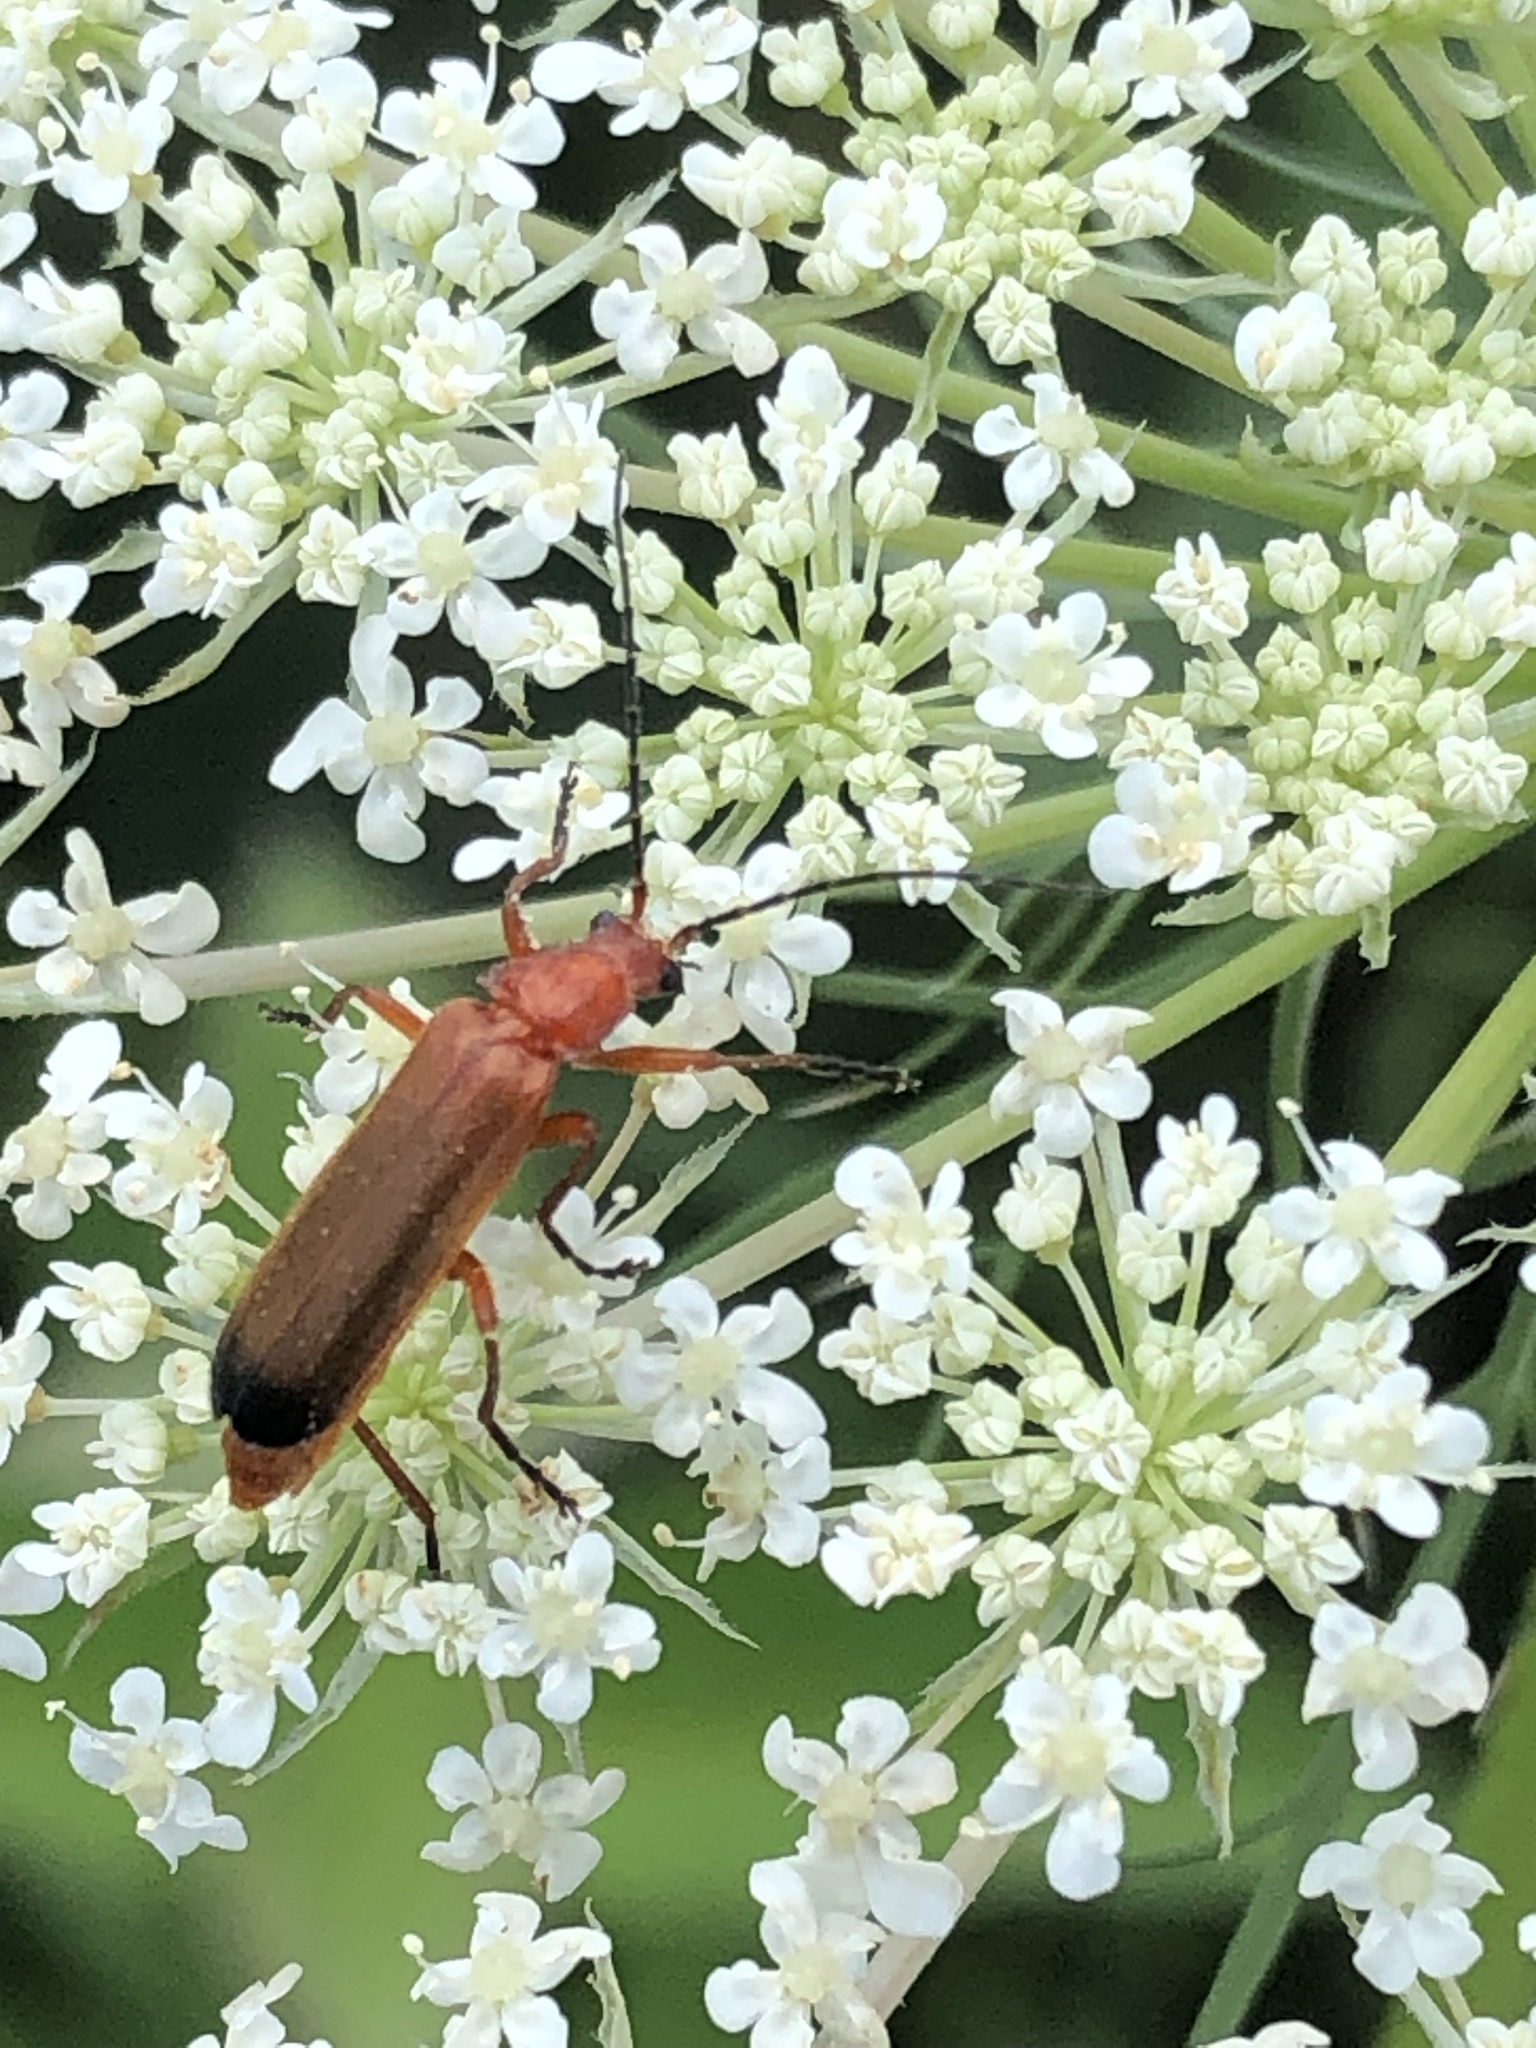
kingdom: Animalia
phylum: Arthropoda
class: Insecta
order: Coleoptera
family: Cantharidae
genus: Rhagonycha
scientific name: Rhagonycha fulva
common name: Common red soldier beetle
